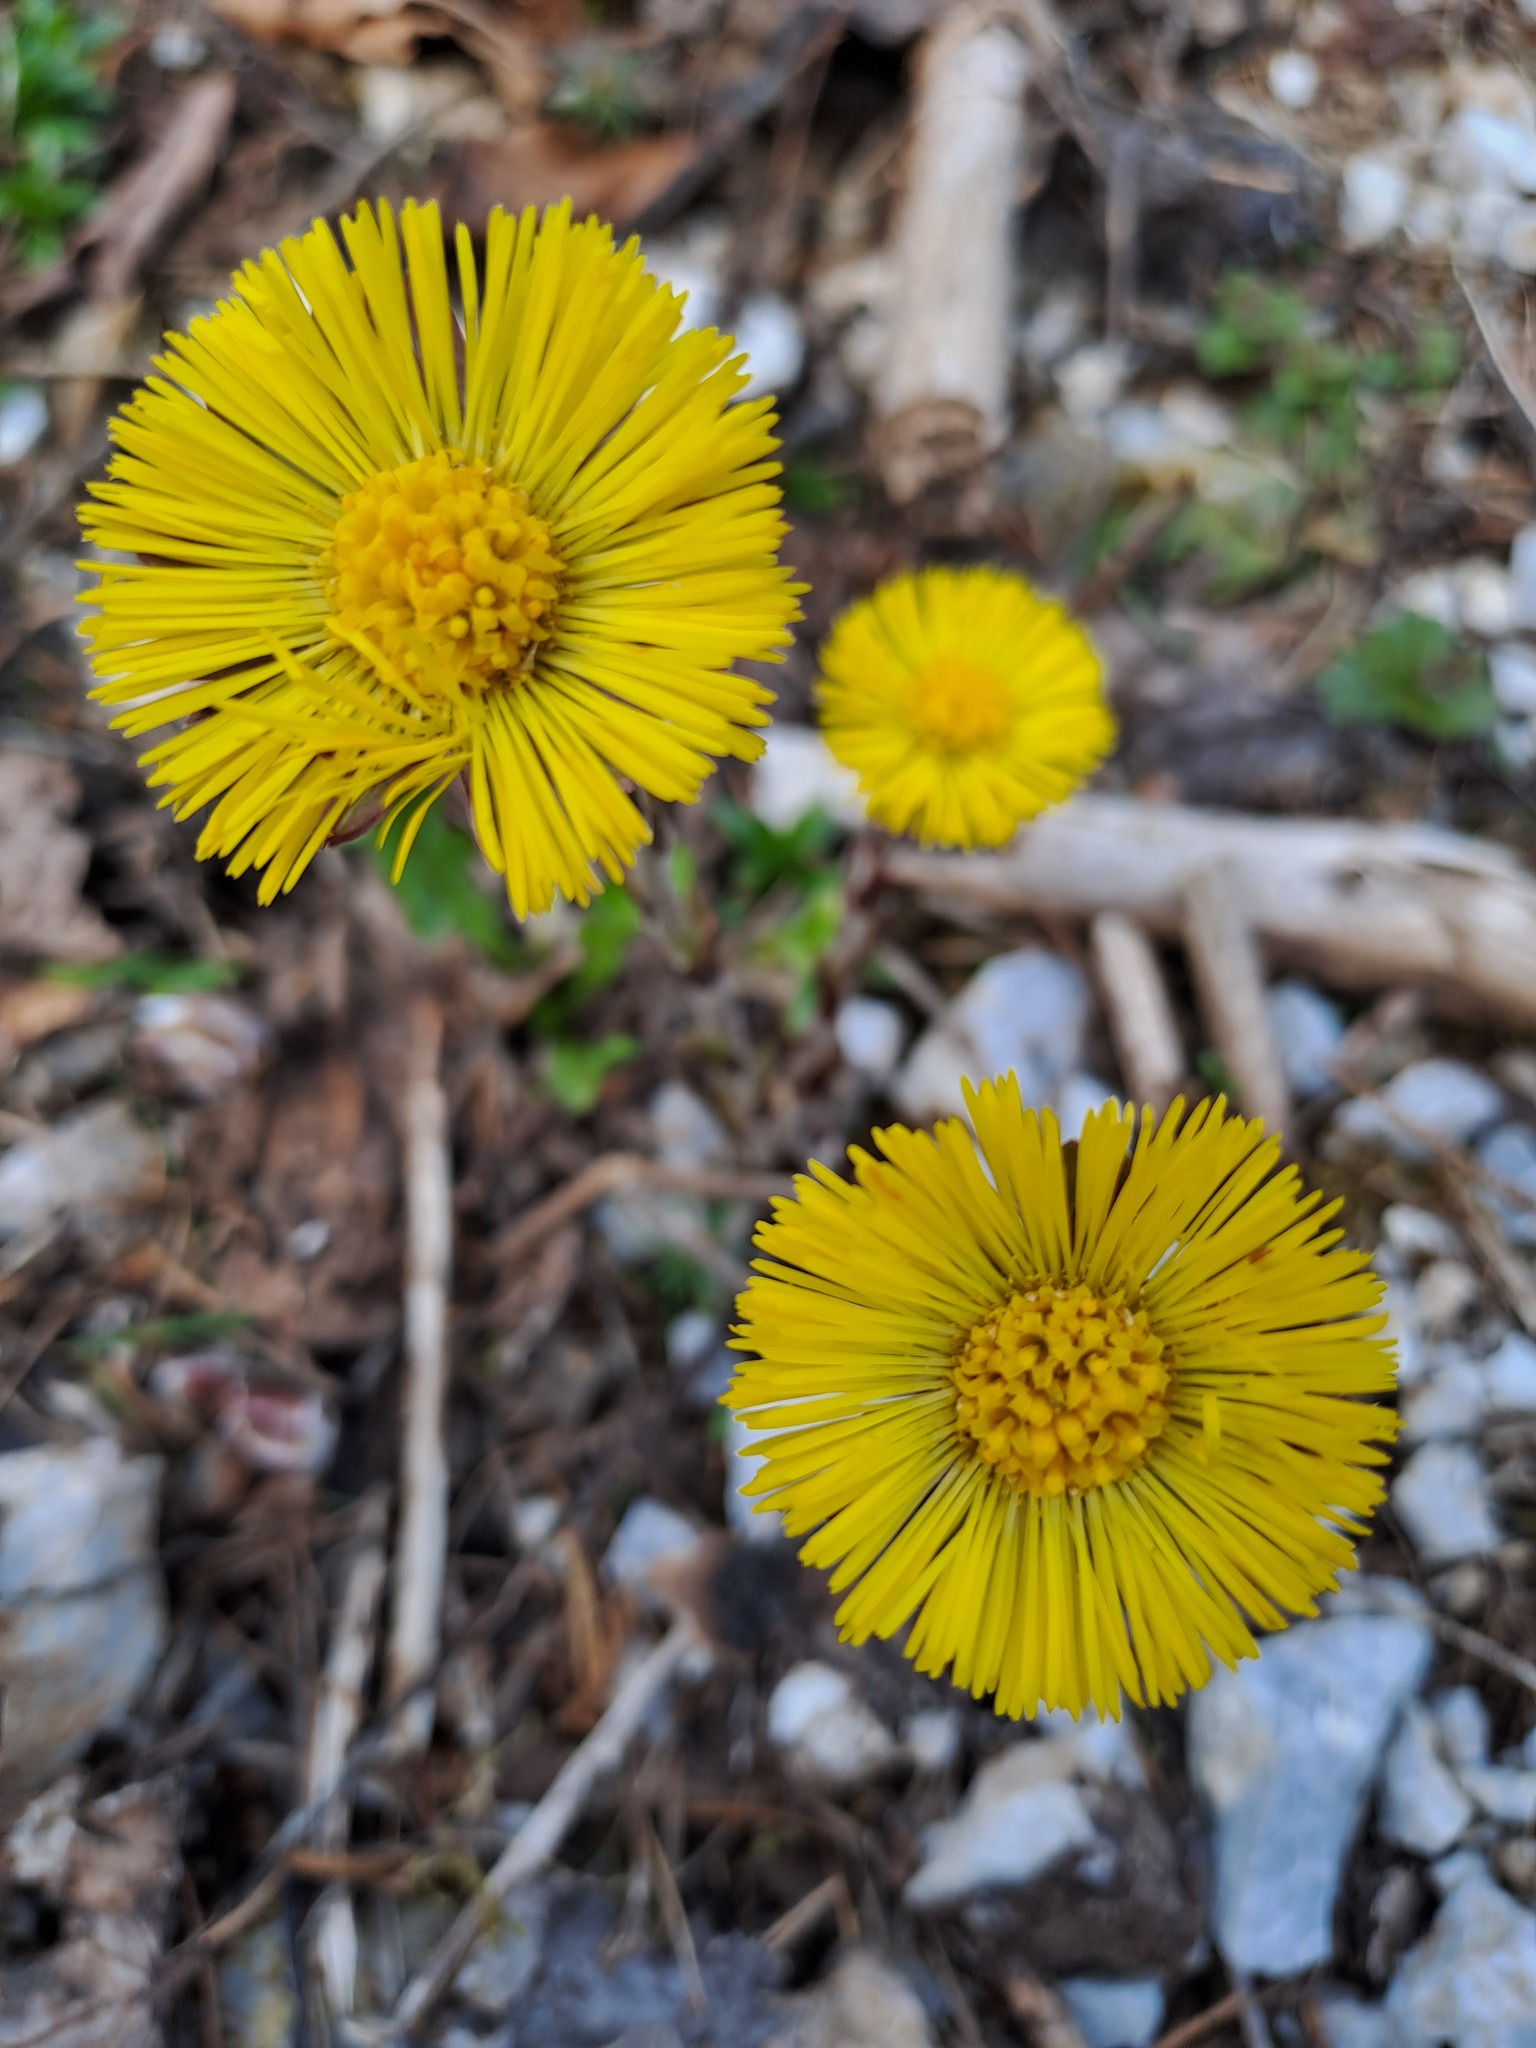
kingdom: Plantae
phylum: Tracheophyta
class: Magnoliopsida
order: Asterales
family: Asteraceae
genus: Tussilago
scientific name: Tussilago farfara
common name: Coltsfoot
